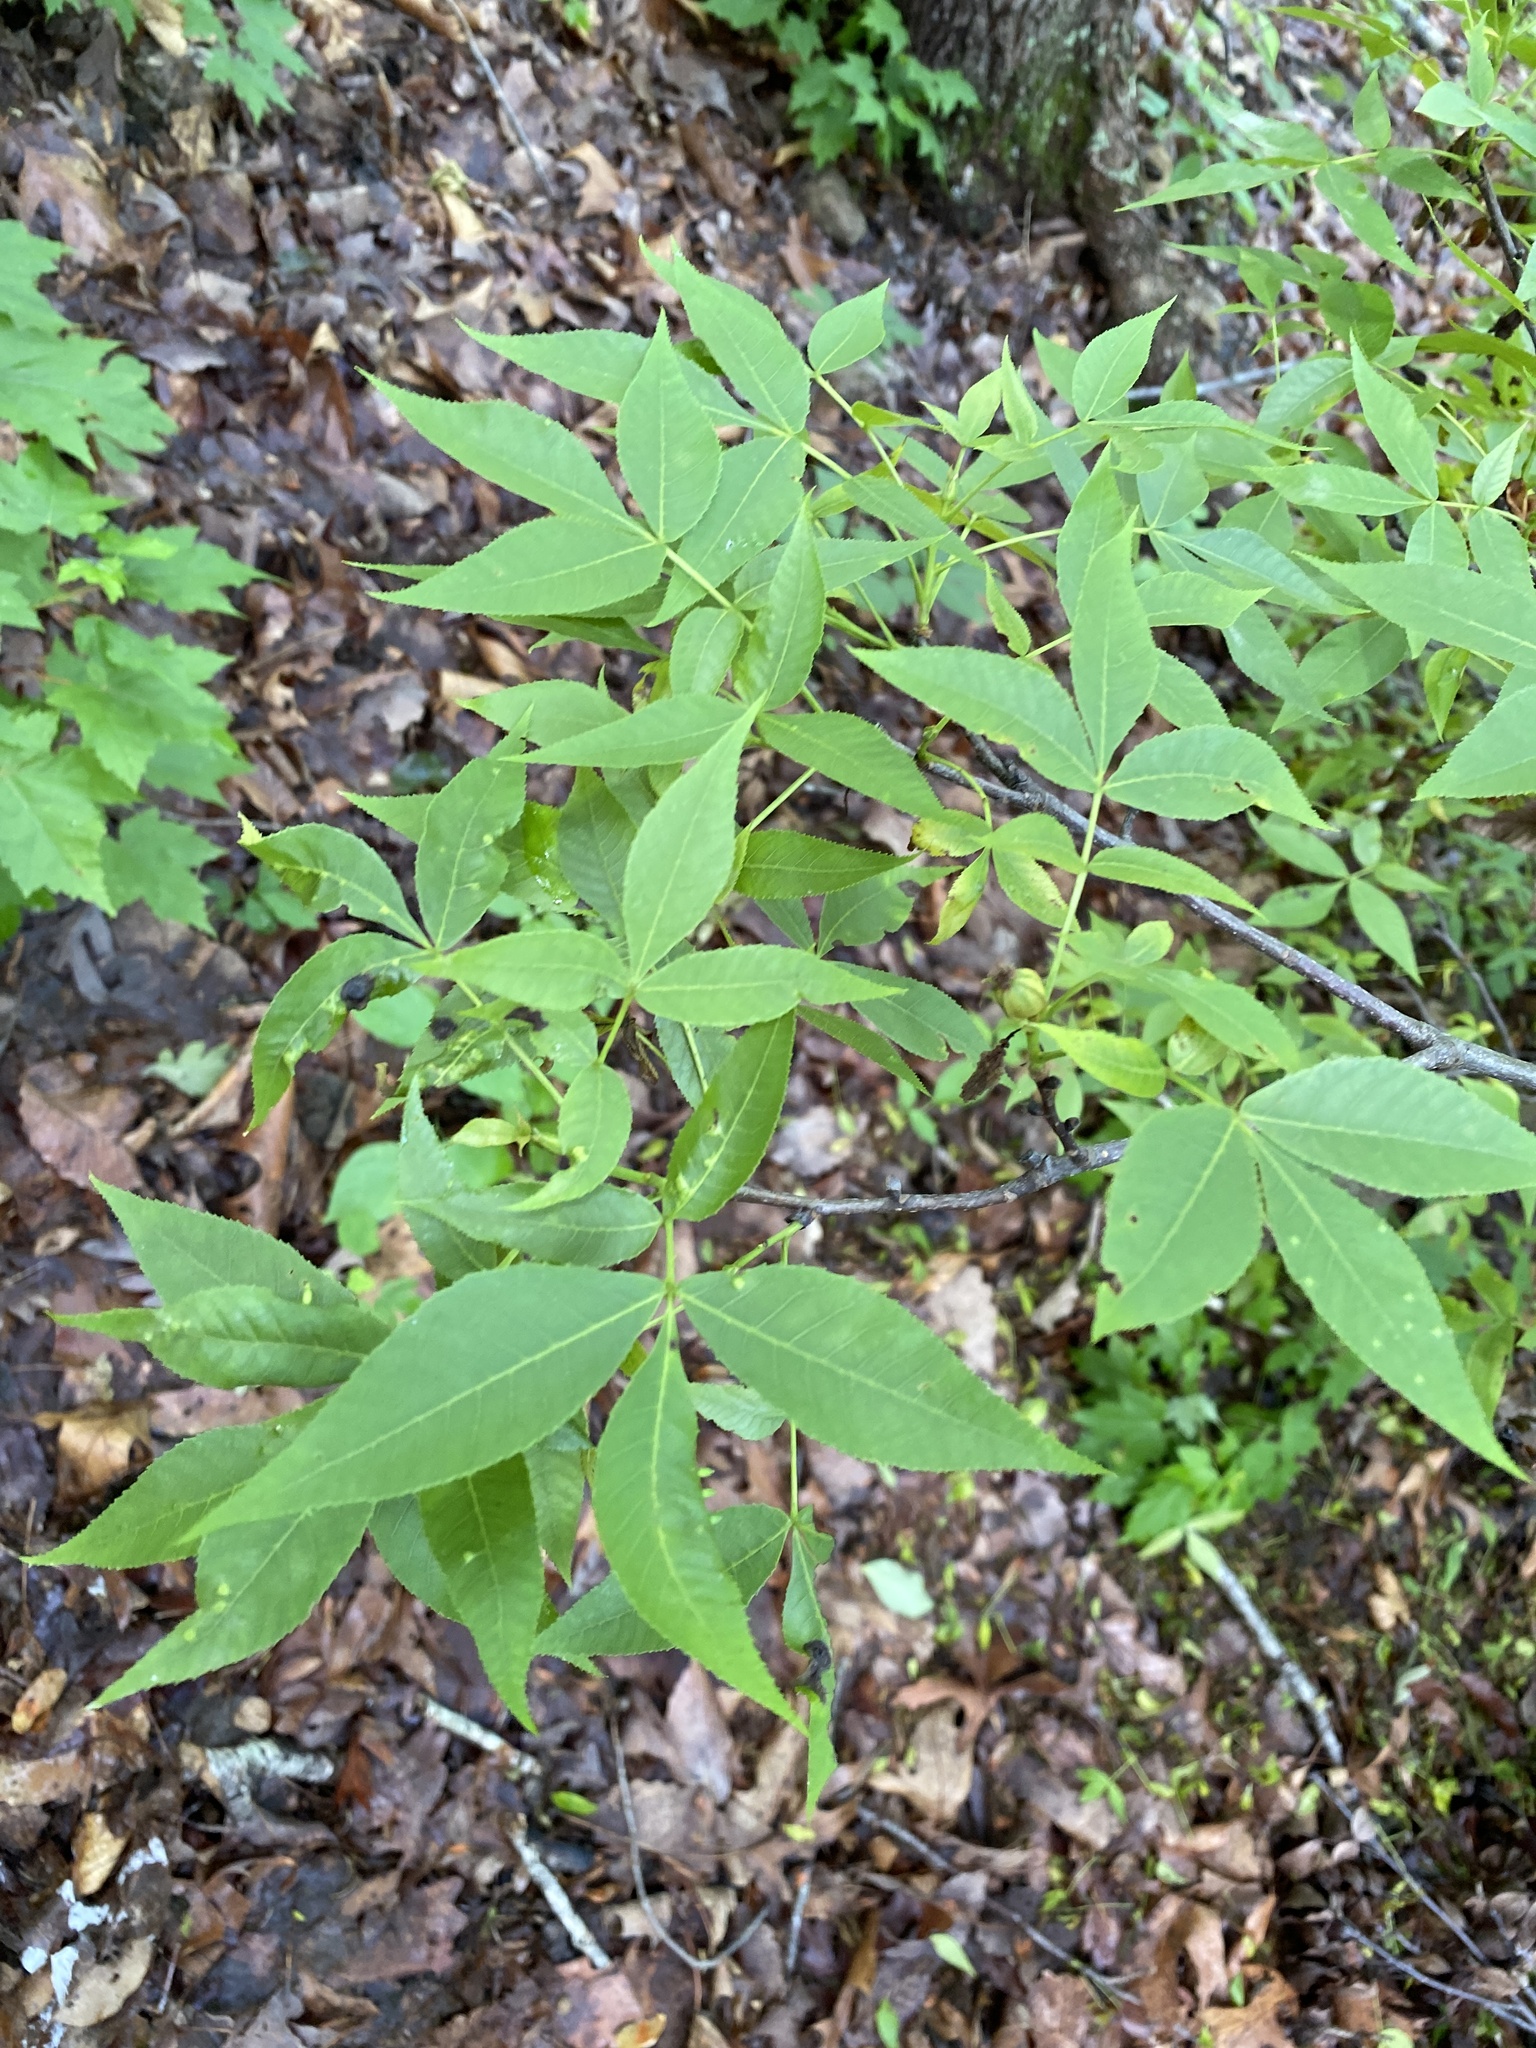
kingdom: Plantae
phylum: Tracheophyta
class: Magnoliopsida
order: Fagales
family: Juglandaceae
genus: Carya
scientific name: Carya glabra
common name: Pignut hickory
